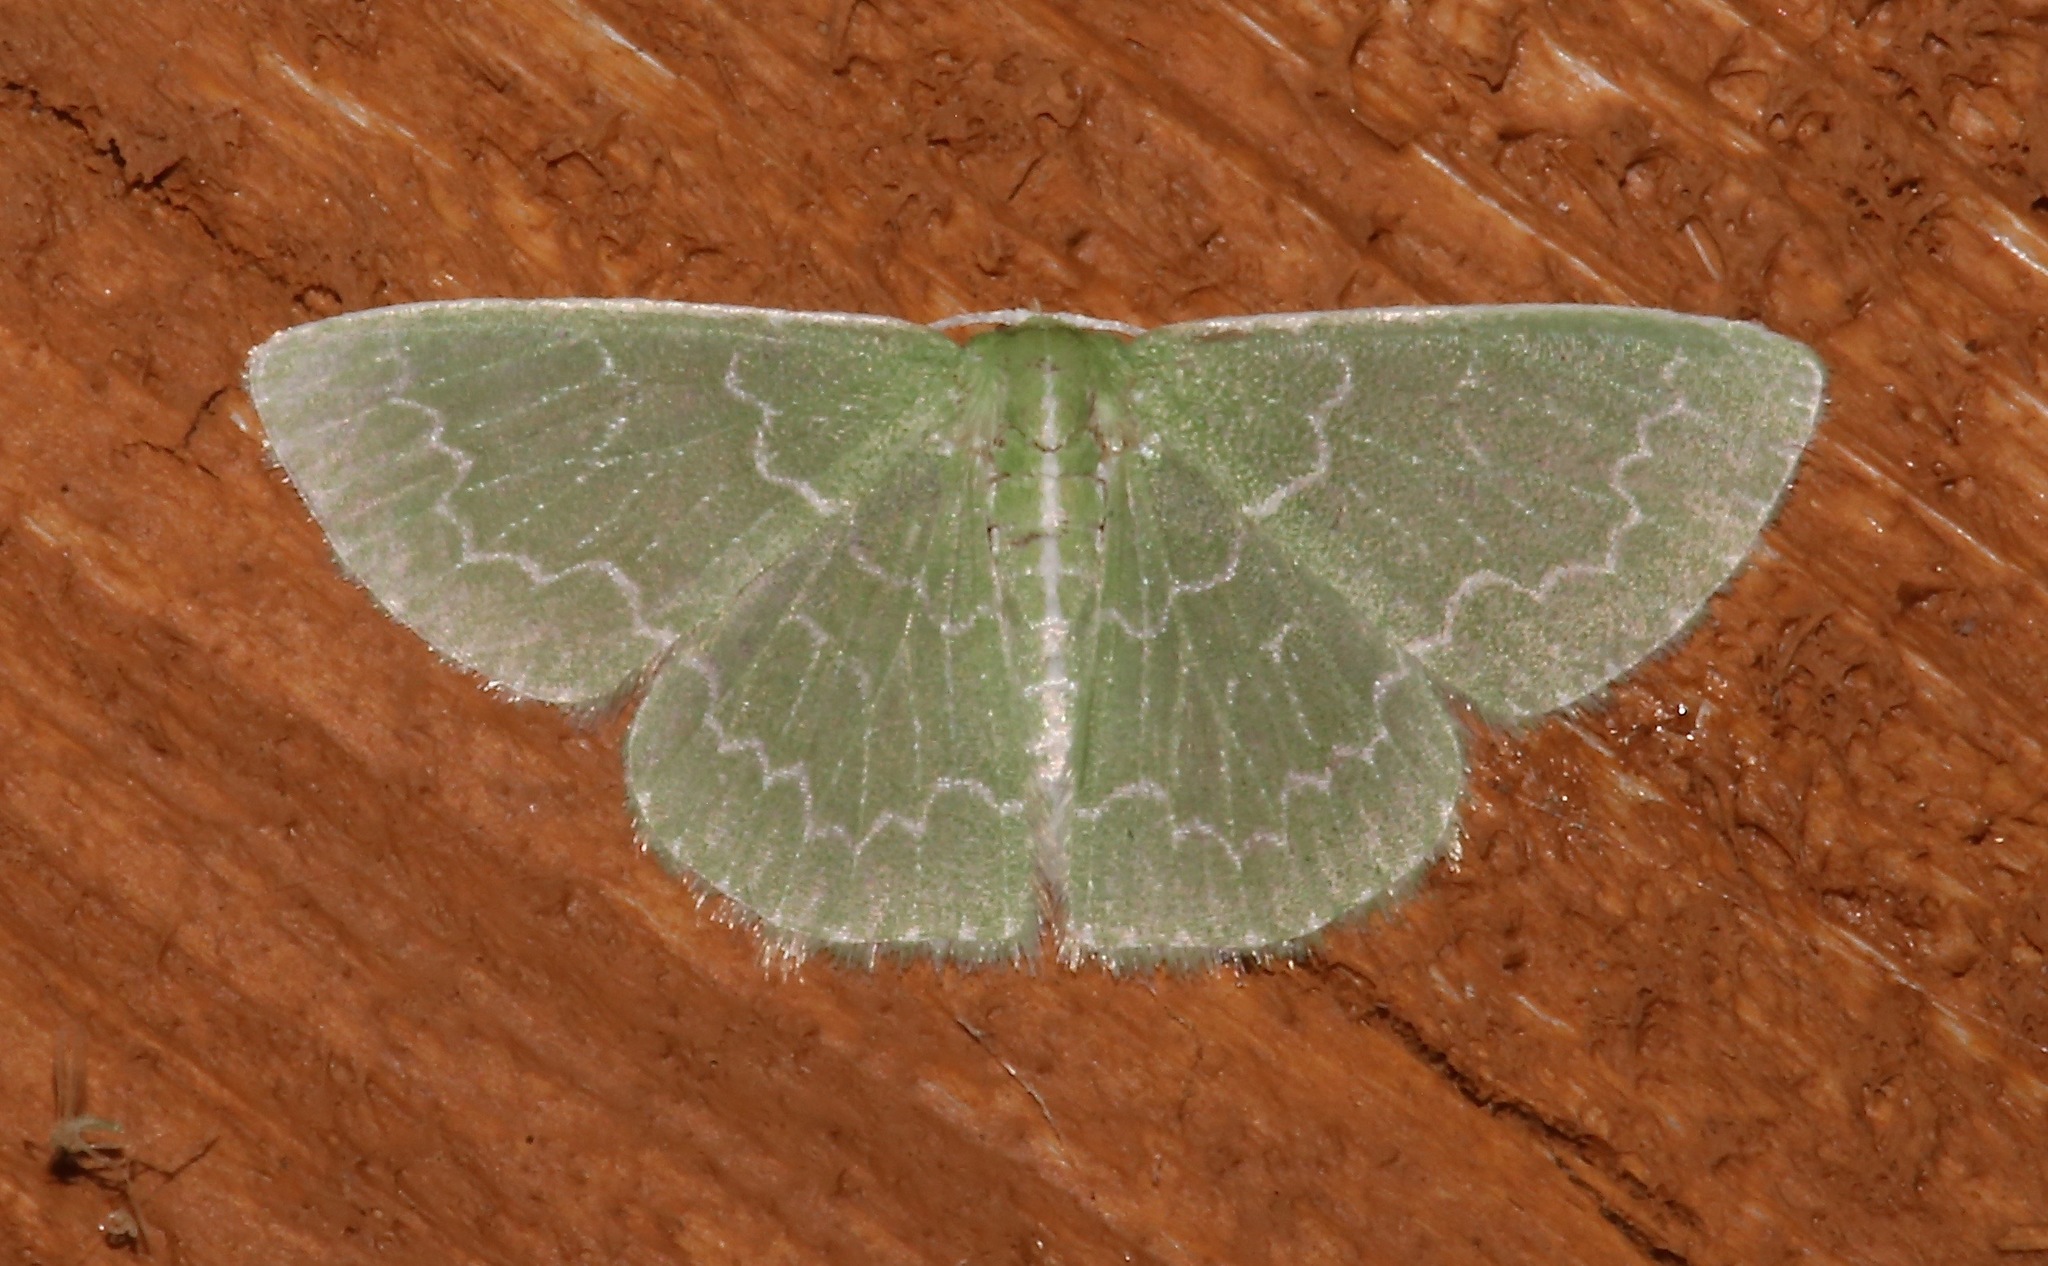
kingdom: Animalia
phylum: Arthropoda
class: Insecta
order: Lepidoptera
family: Geometridae
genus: Synchlora
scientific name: Synchlora frondaria
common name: Southern emerald
